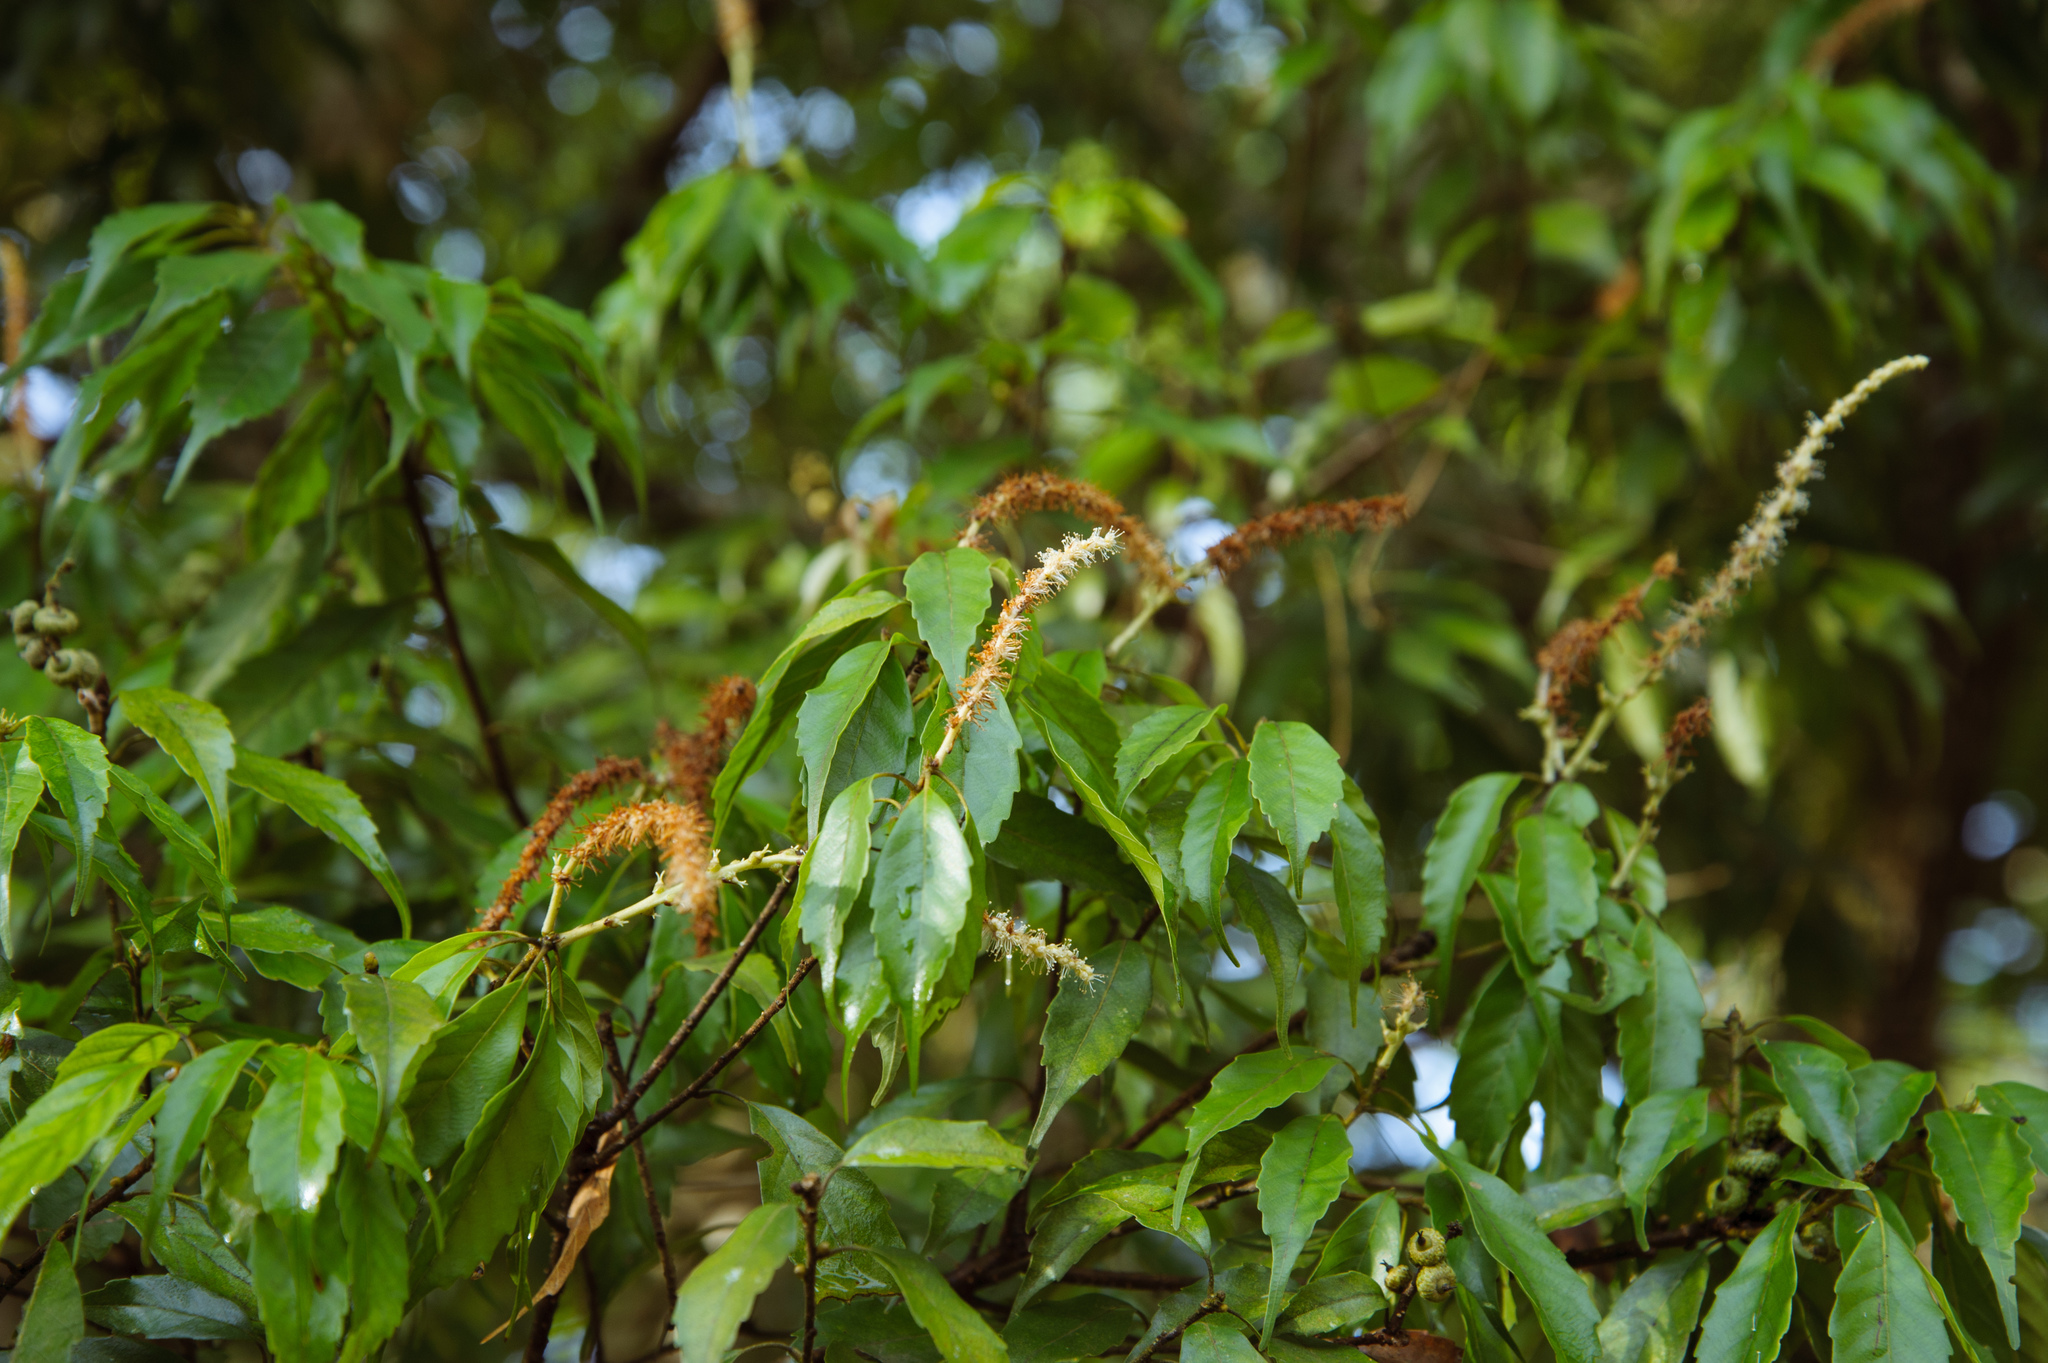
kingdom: Plantae
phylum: Tracheophyta
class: Magnoliopsida
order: Fagales
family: Fagaceae
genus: Lithocarpus
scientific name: Lithocarpus konishii
